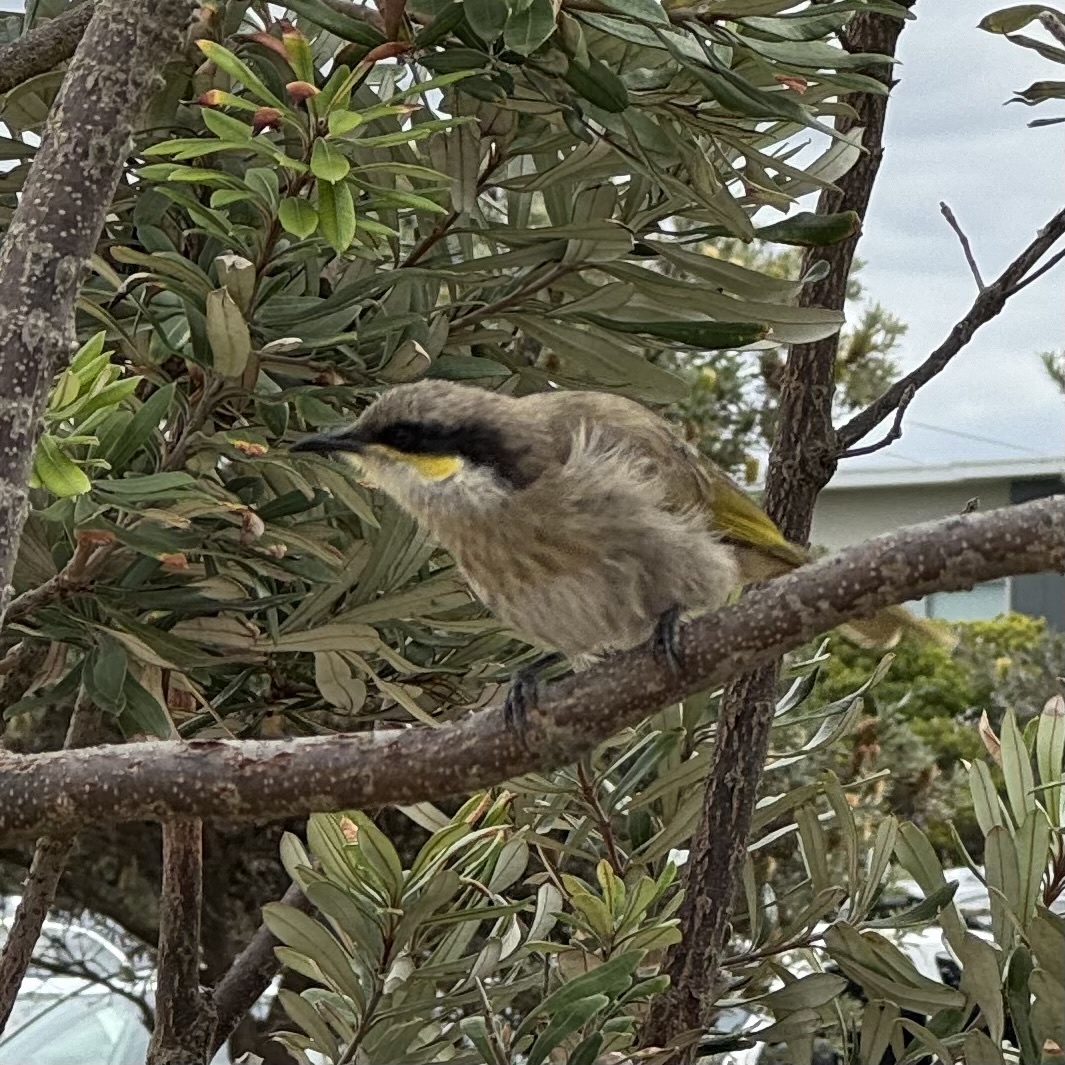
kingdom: Animalia
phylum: Chordata
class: Aves
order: Passeriformes
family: Meliphagidae
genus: Gavicalis
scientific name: Gavicalis virescens
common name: Singing honeyeater
